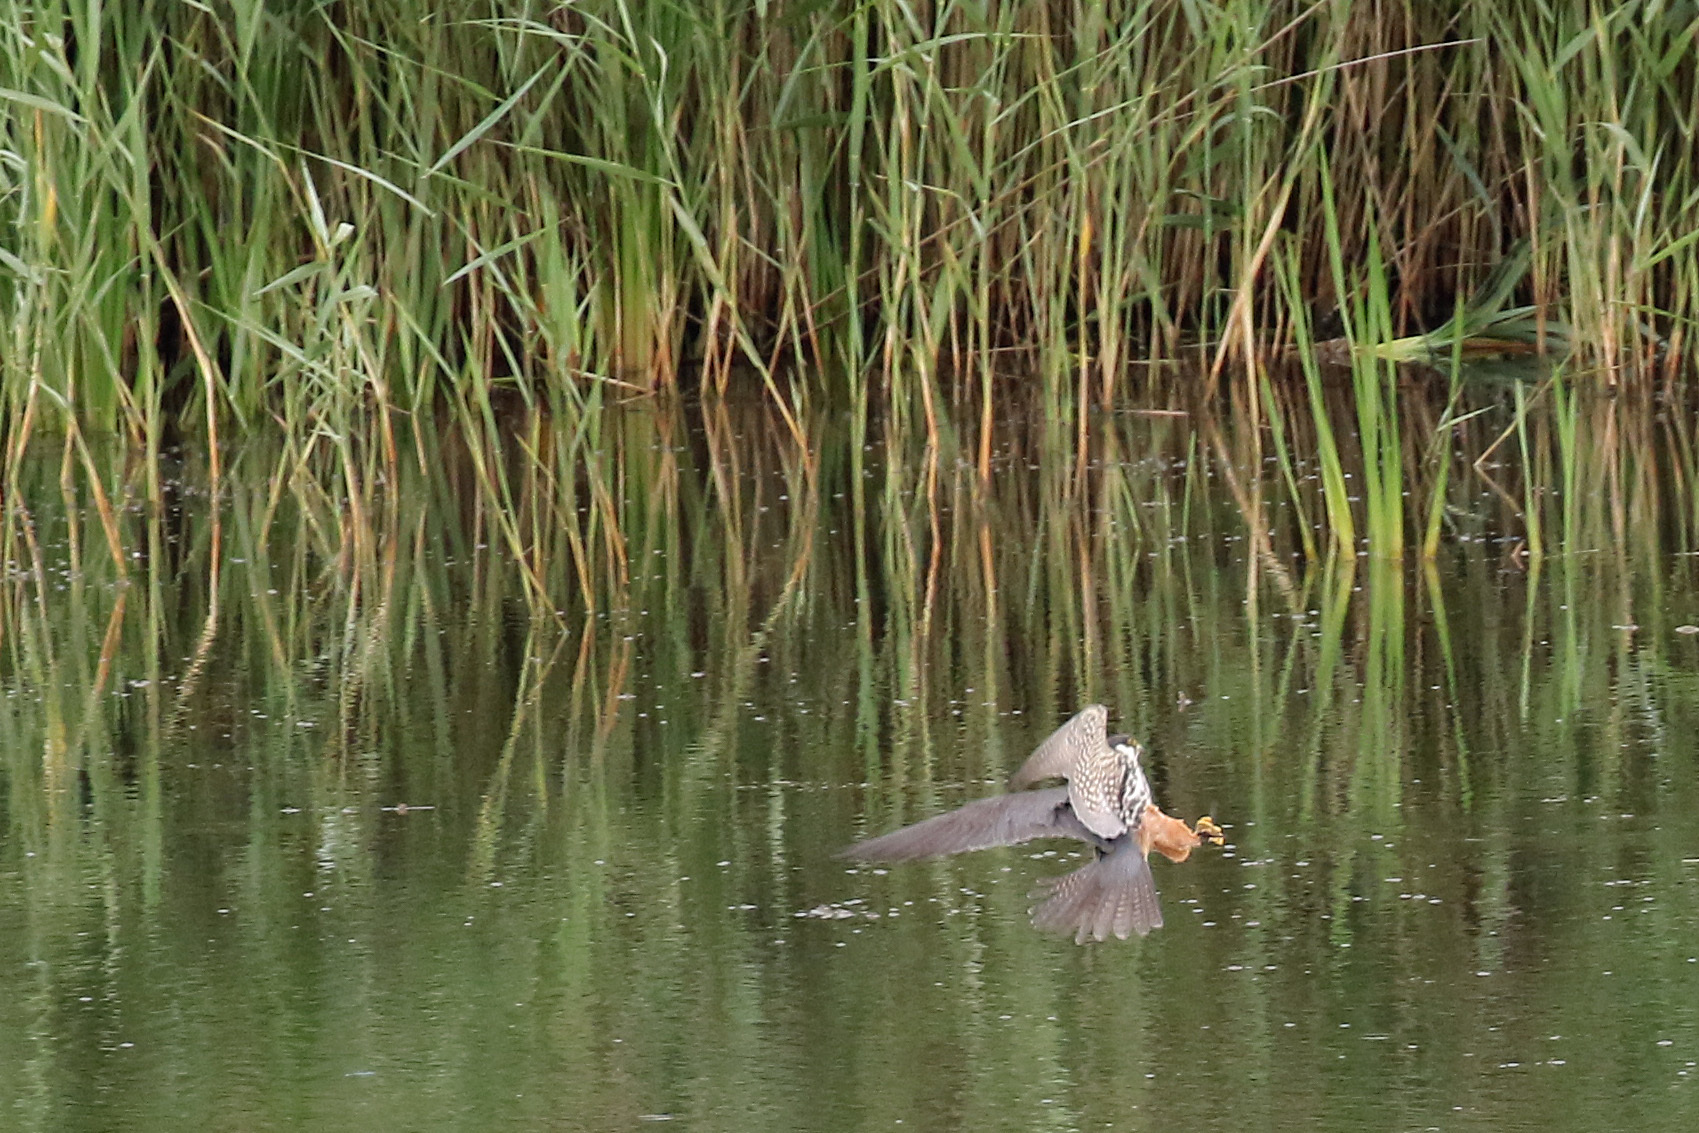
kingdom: Animalia
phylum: Chordata
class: Aves
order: Falconiformes
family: Falconidae
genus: Falco
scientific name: Falco subbuteo
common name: Eurasian hobby
